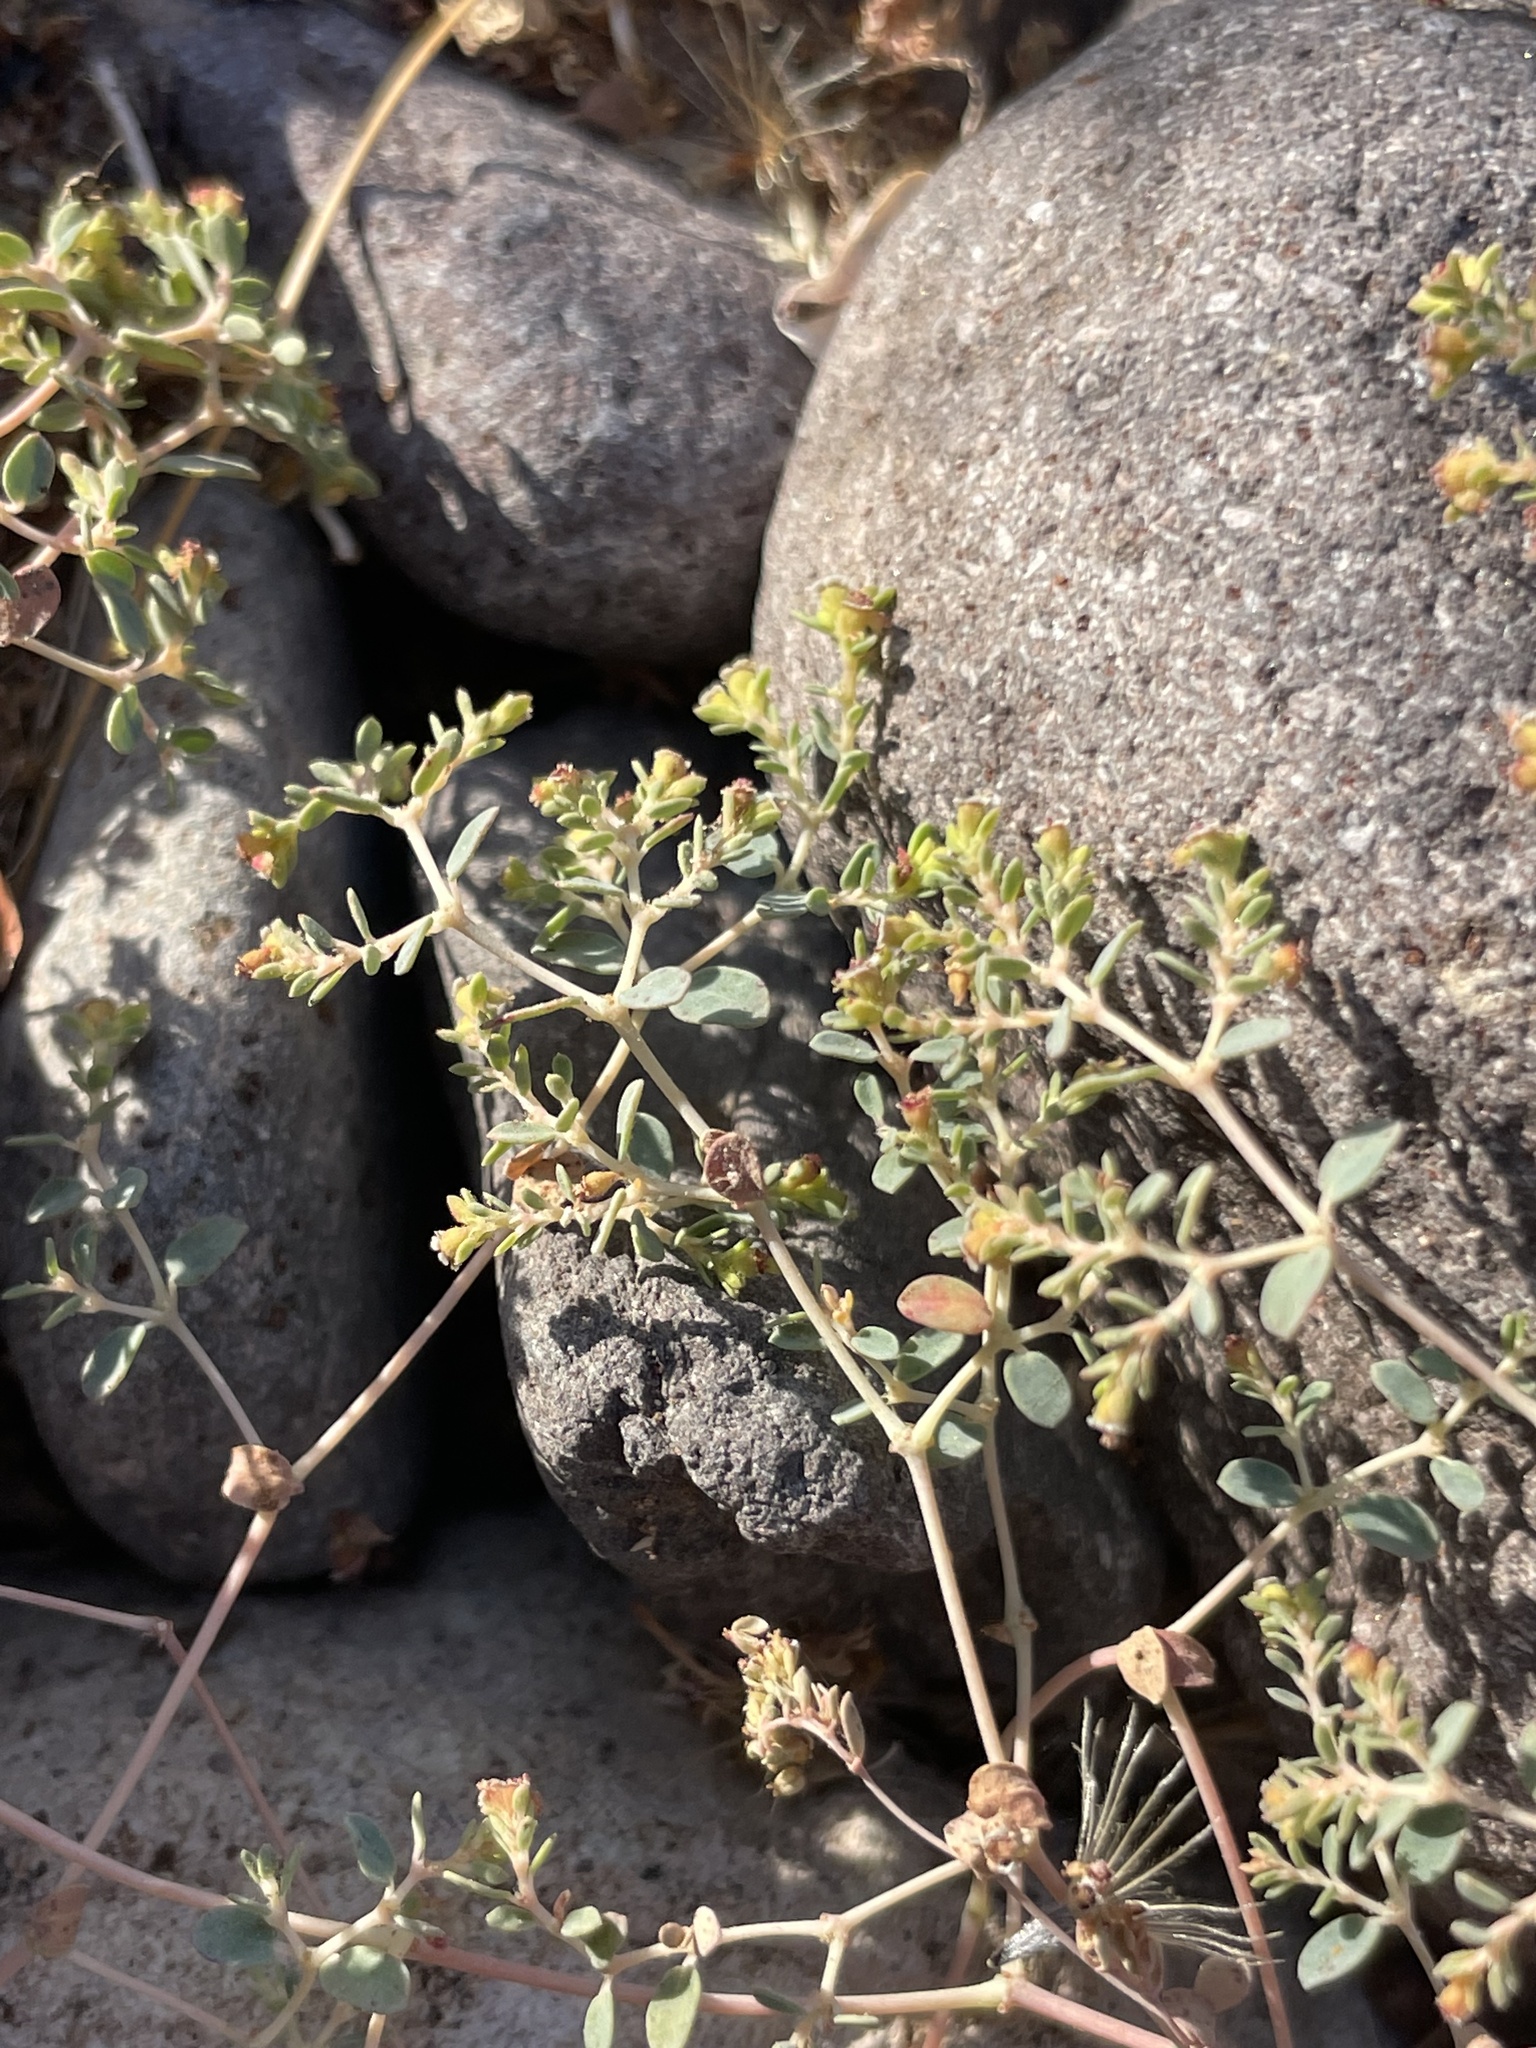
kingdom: Plantae
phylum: Tracheophyta
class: Magnoliopsida
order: Malpighiales
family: Euphorbiaceae
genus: Euphorbia
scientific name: Euphorbia polycarpa
